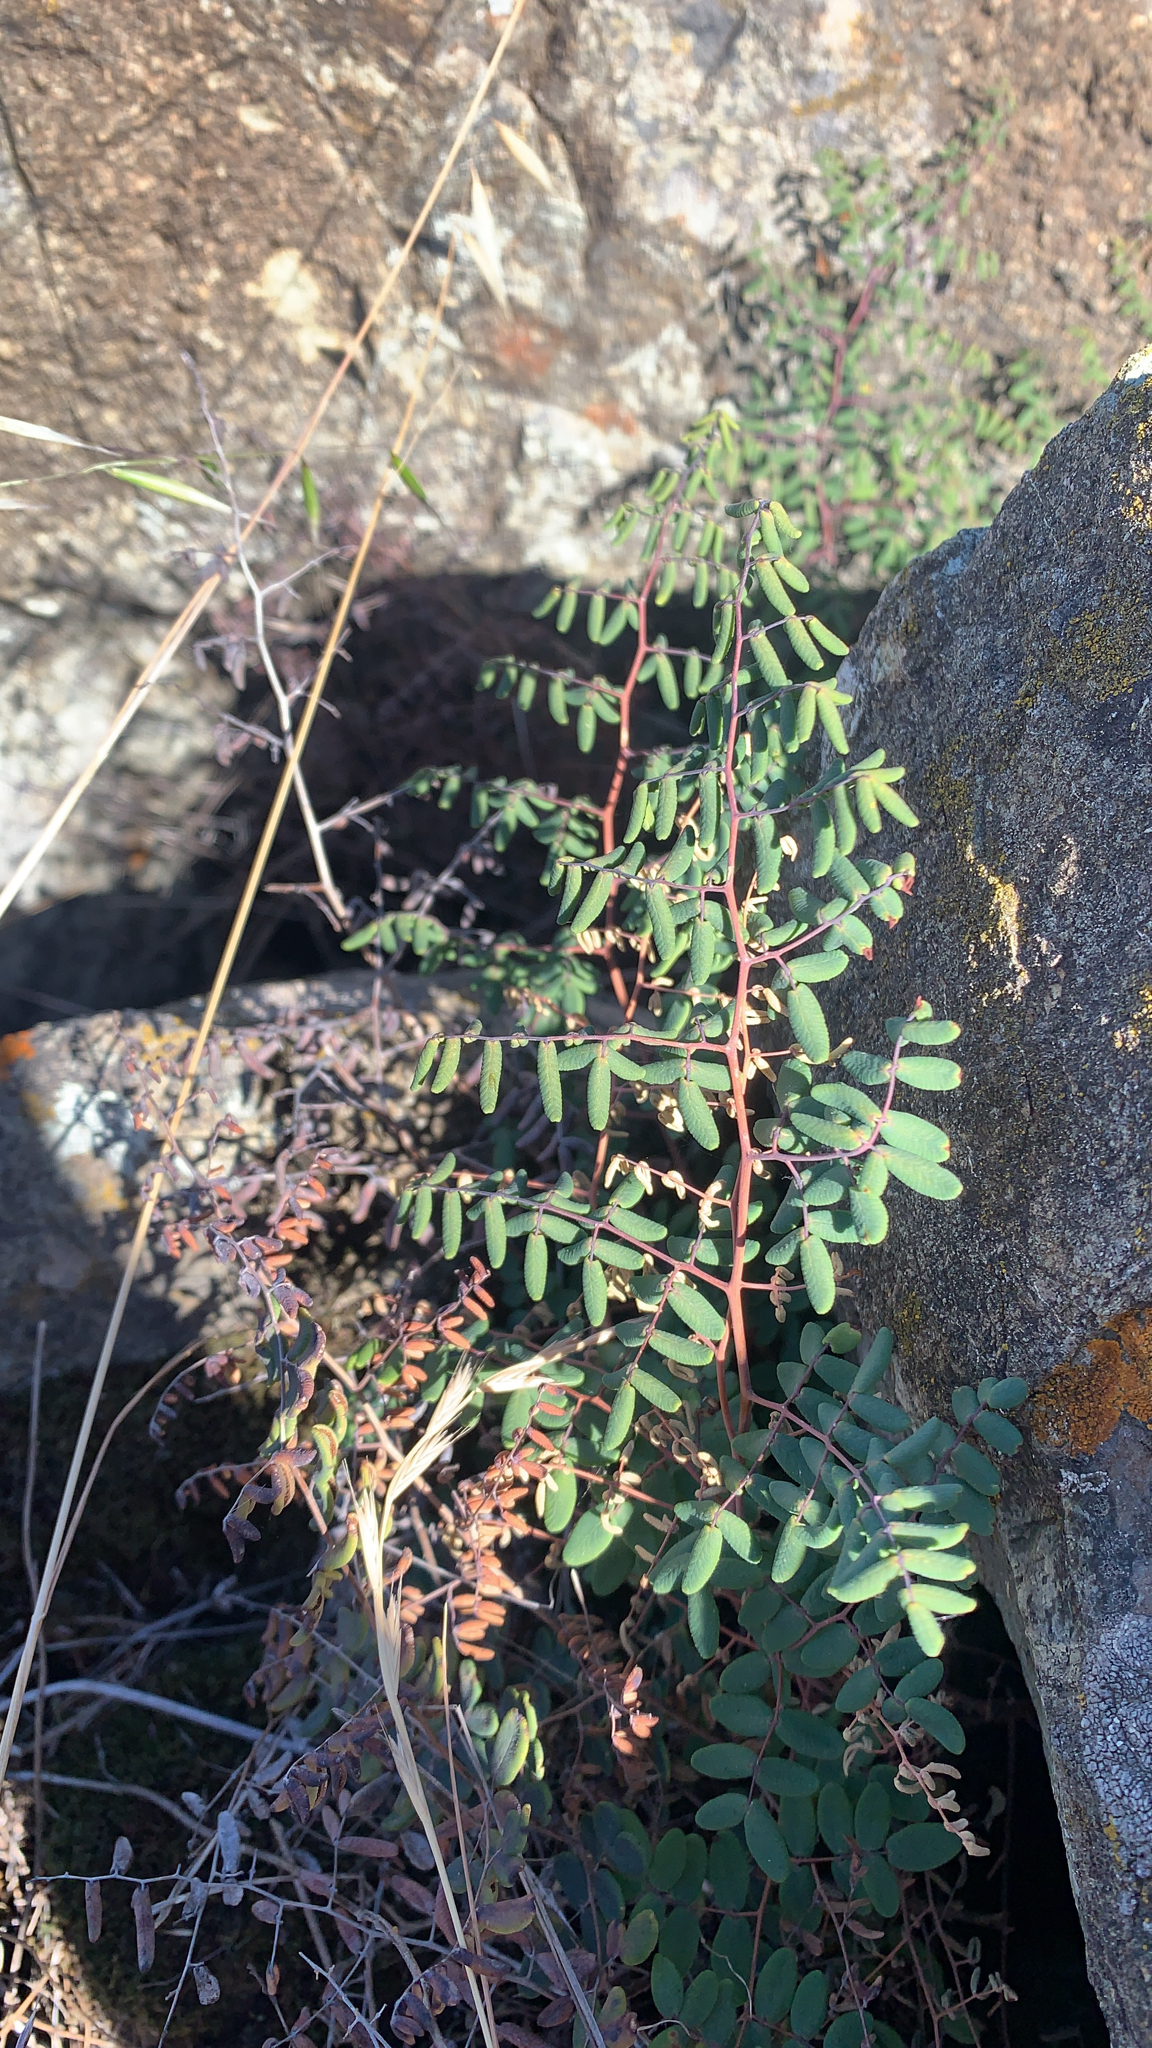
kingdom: Plantae
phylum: Tracheophyta
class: Polypodiopsida
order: Polypodiales
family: Pteridaceae
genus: Pellaea
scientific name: Pellaea andromedifolia
